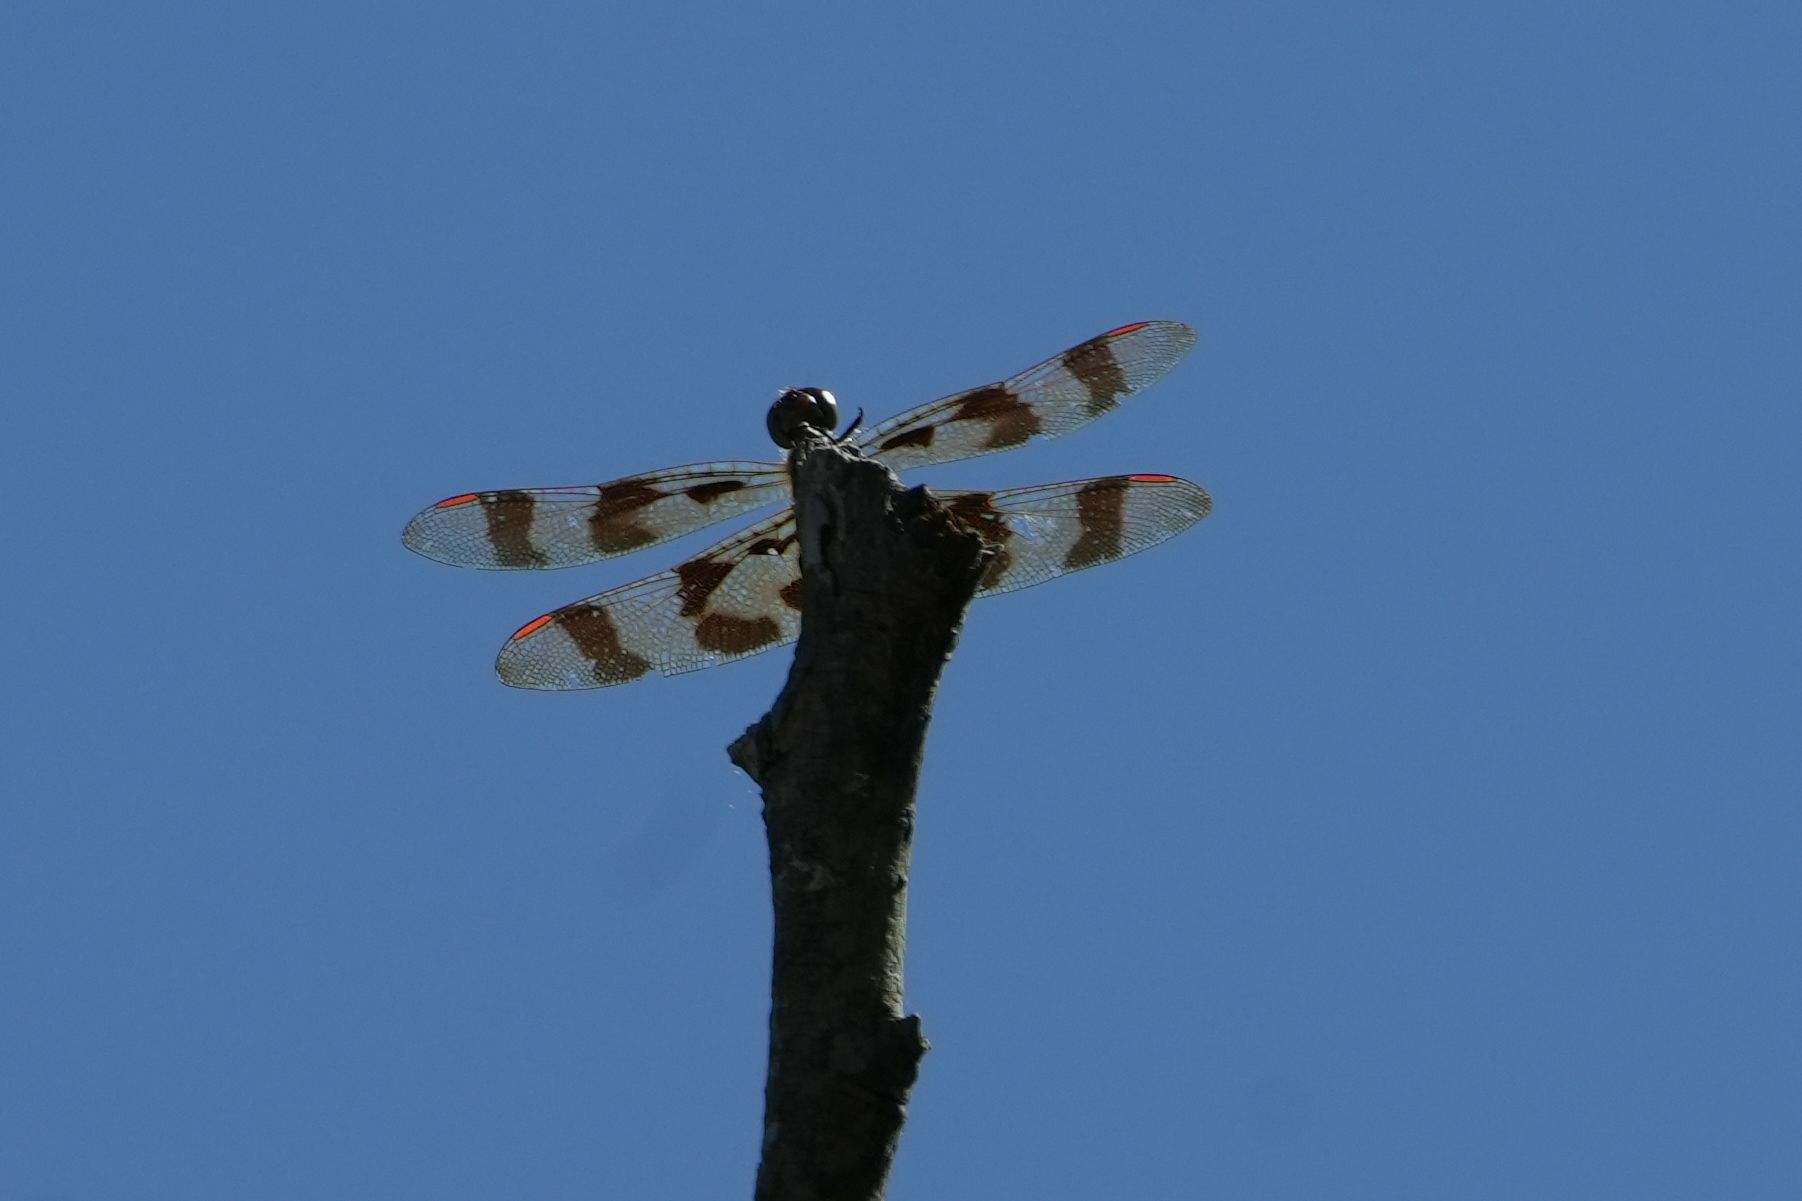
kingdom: Animalia
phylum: Arthropoda
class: Insecta
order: Odonata
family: Libellulidae
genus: Celithemis
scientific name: Celithemis eponina
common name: Halloween pennant
